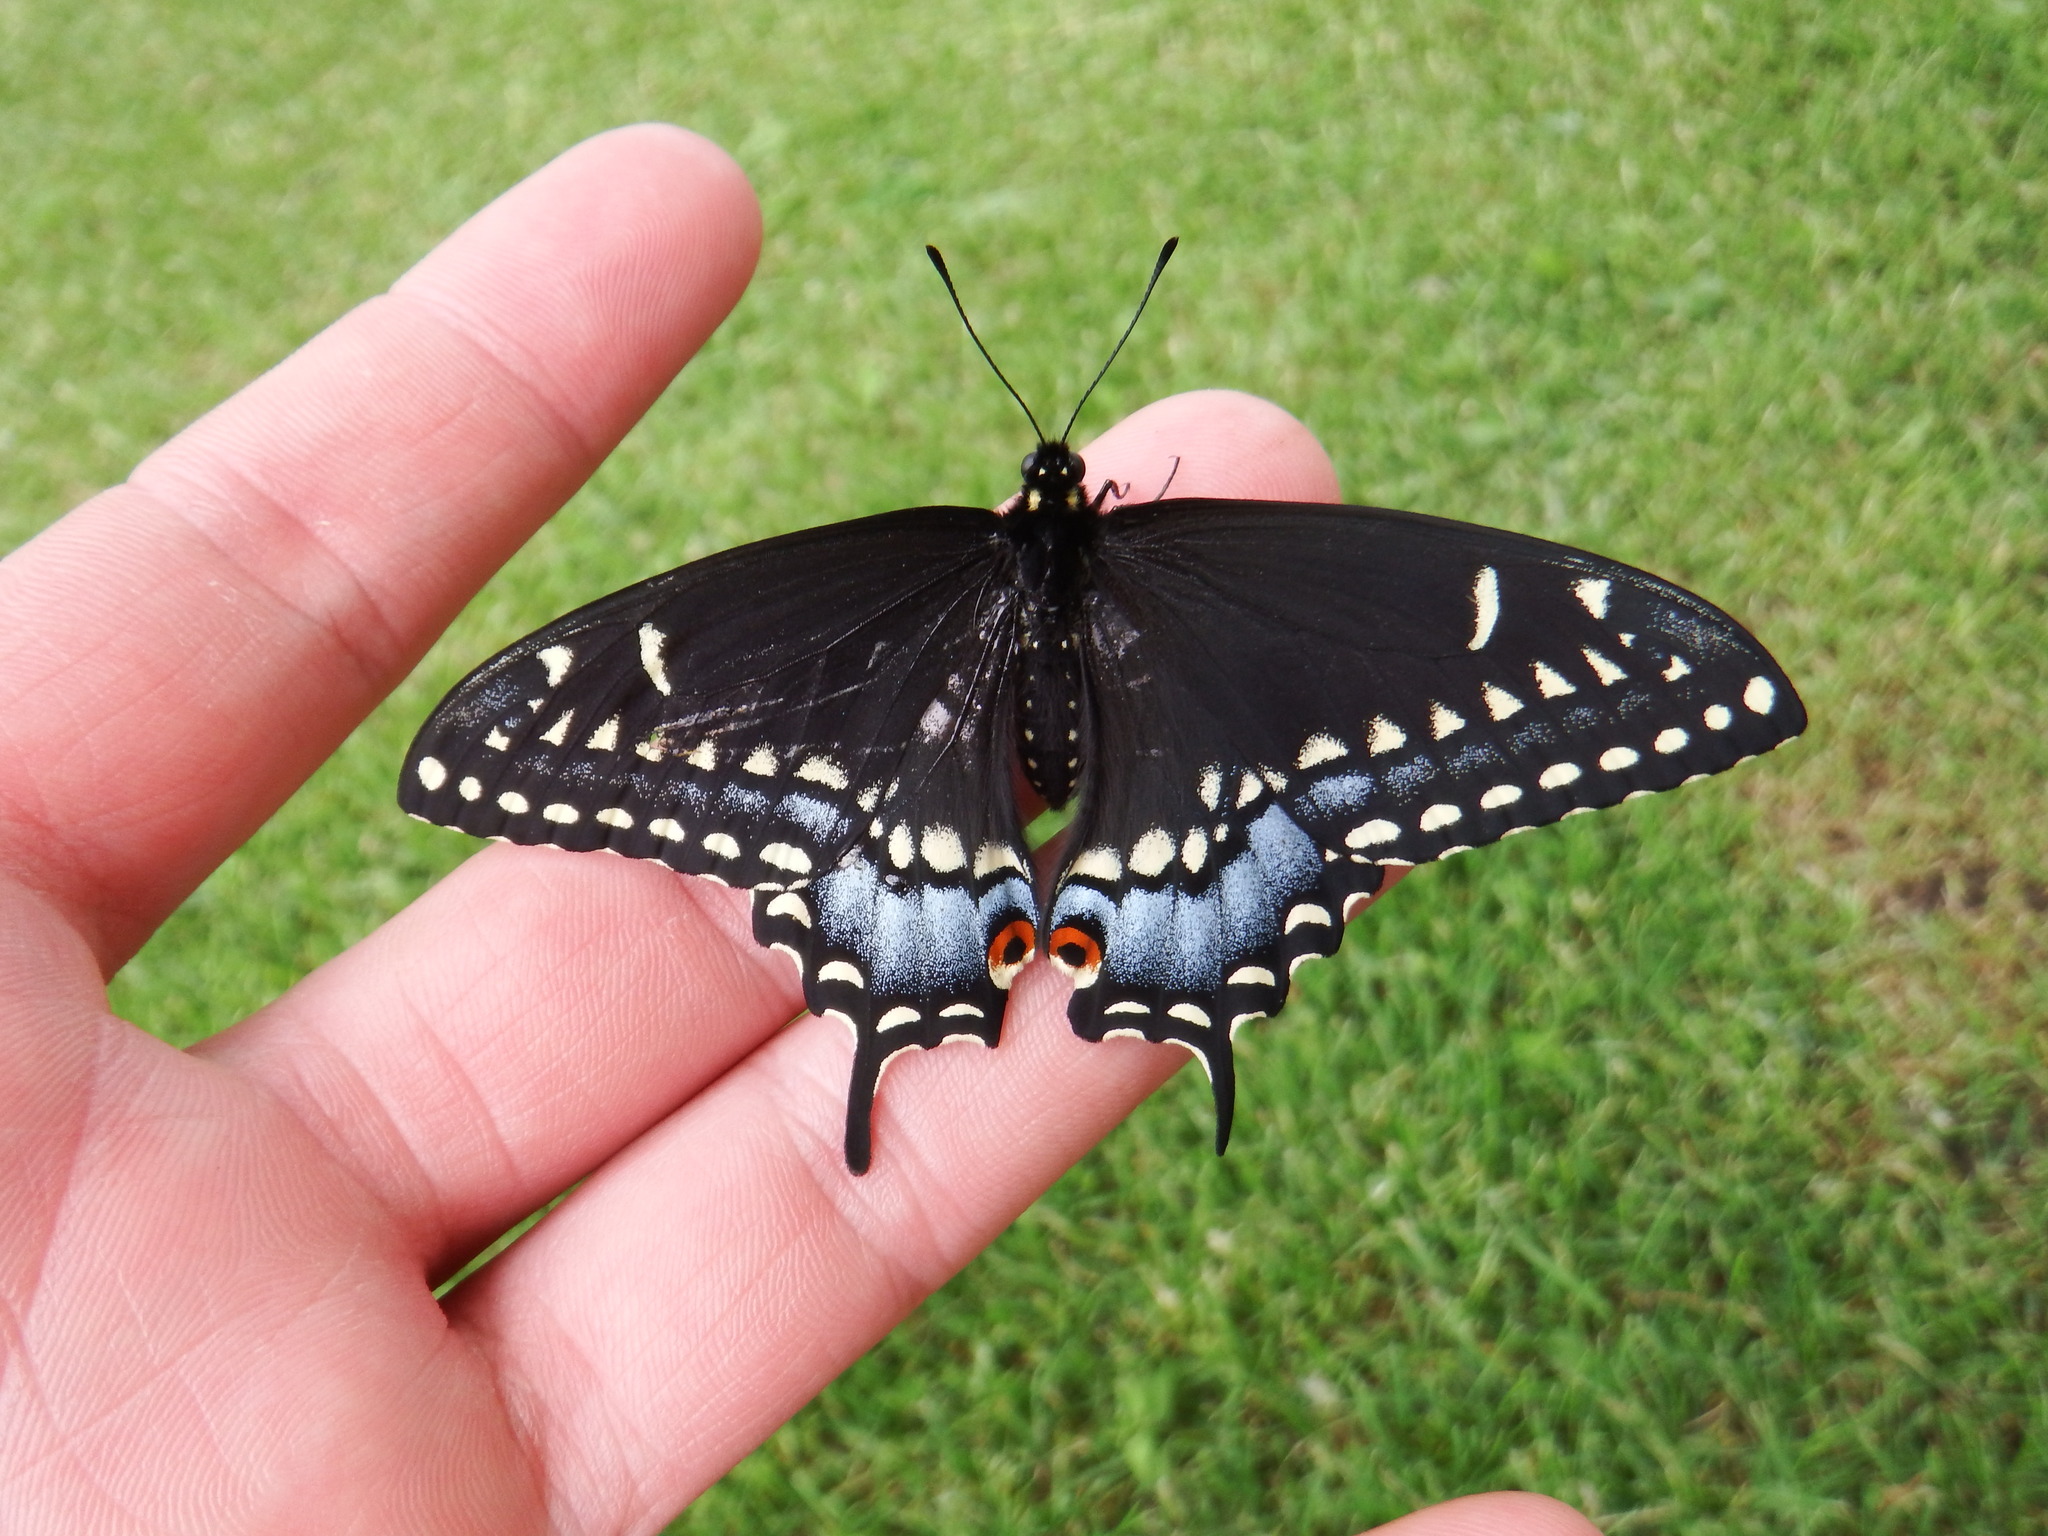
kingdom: Animalia
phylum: Arthropoda
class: Insecta
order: Lepidoptera
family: Papilionidae
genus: Papilio
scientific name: Papilio polyxenes
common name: Black swallowtail
